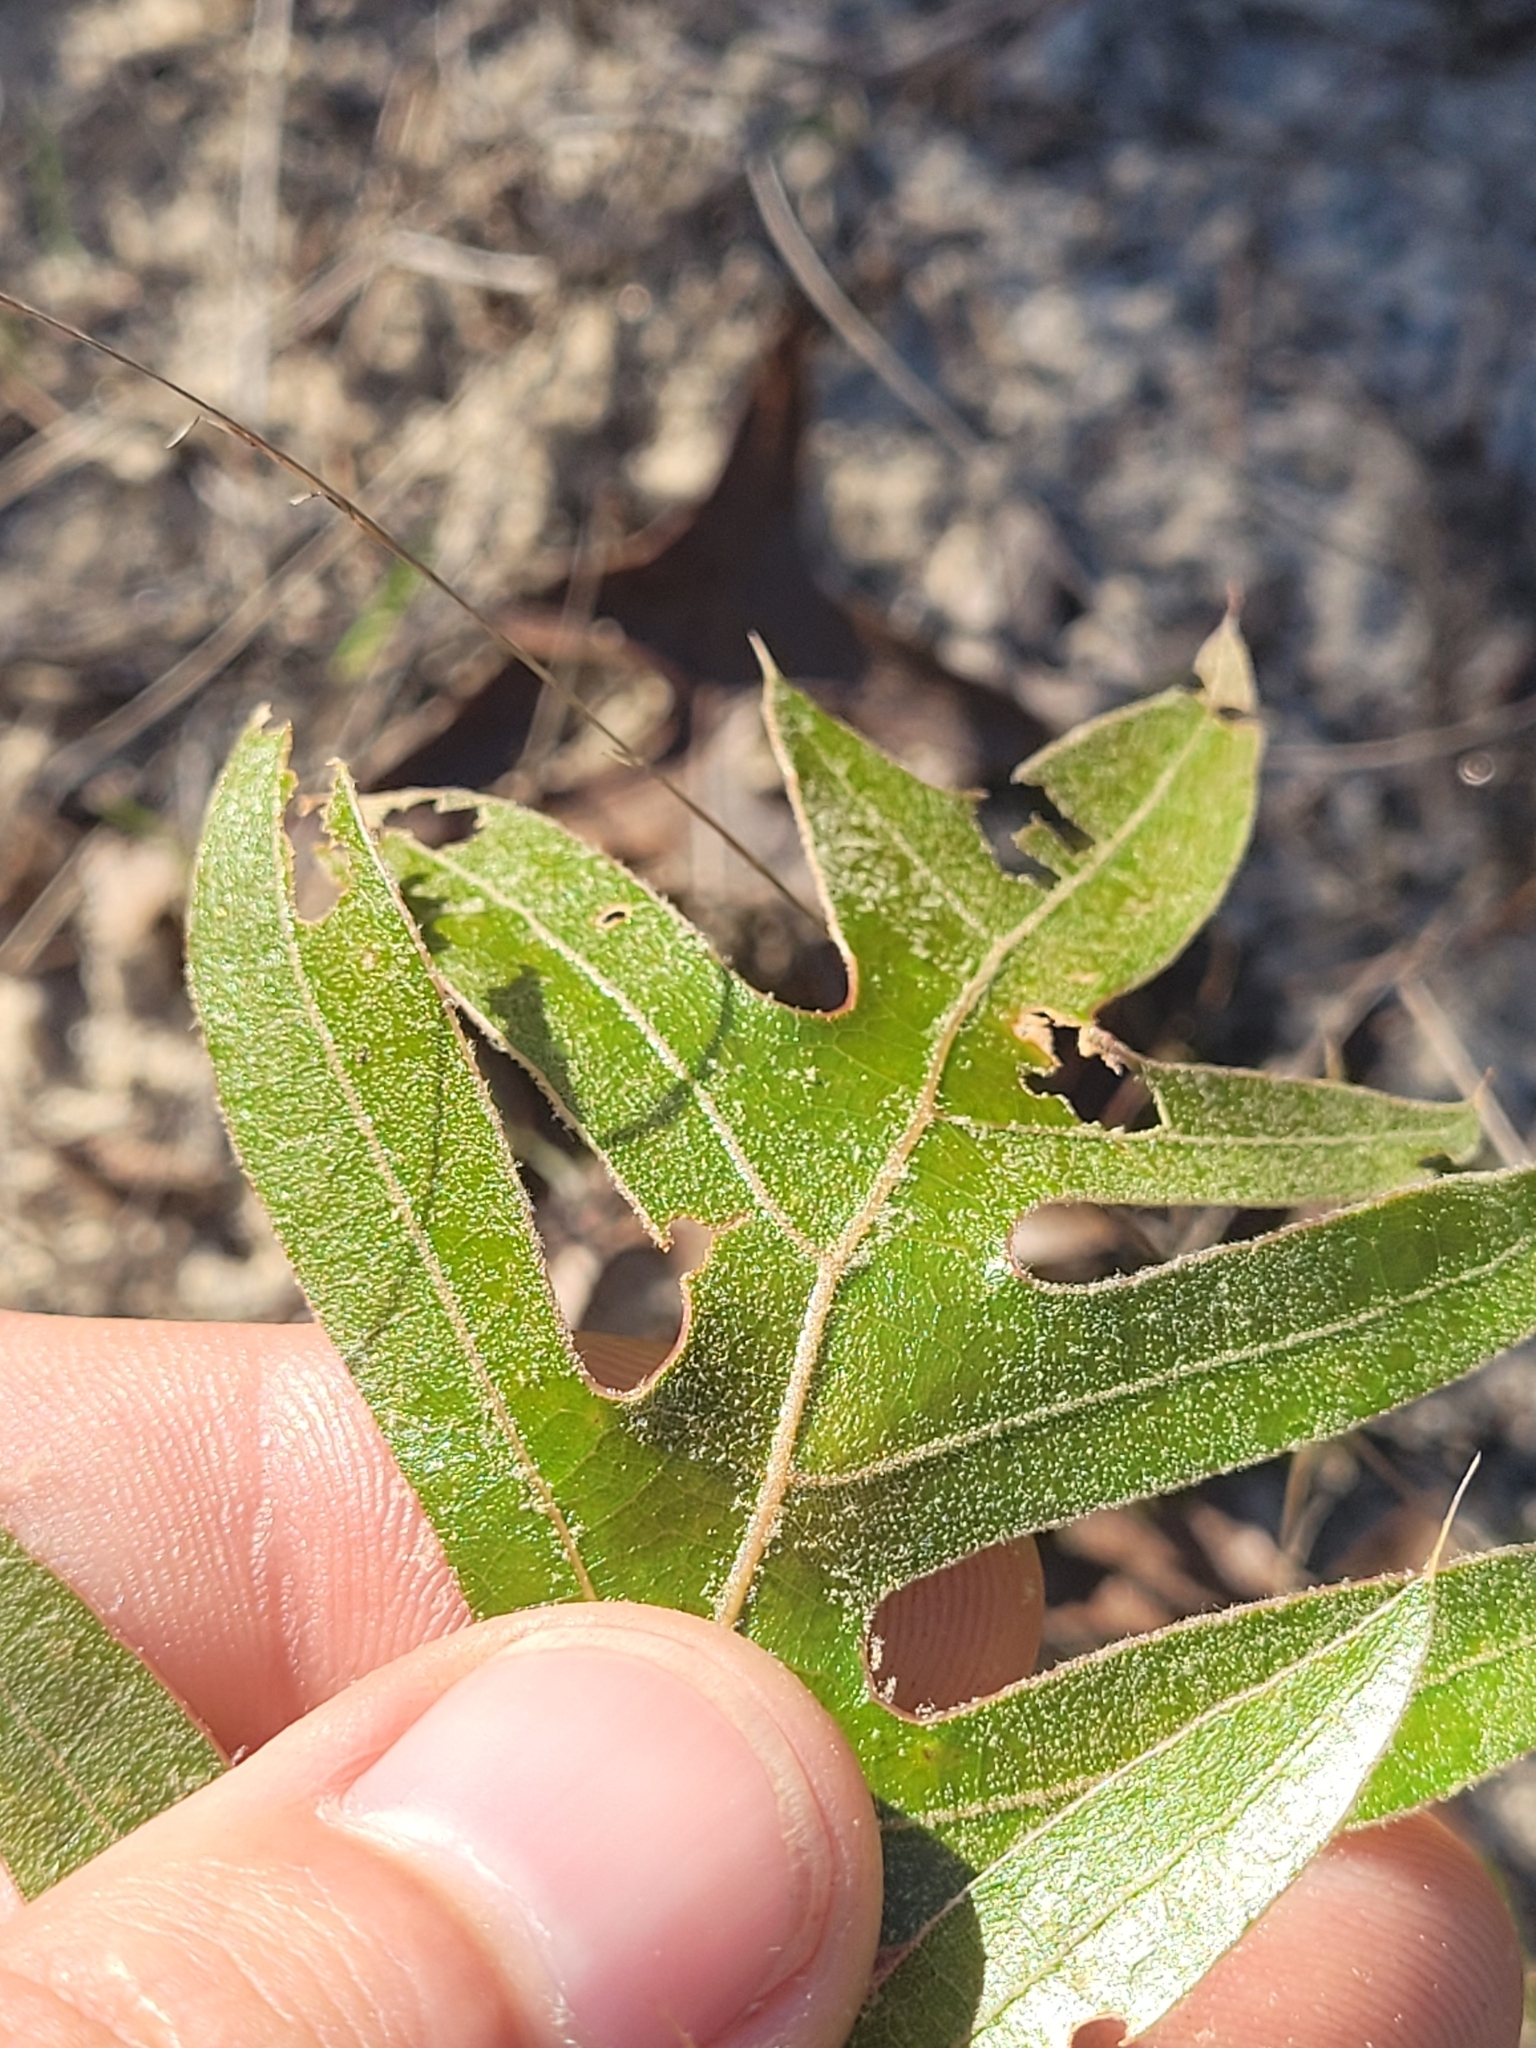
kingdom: Plantae
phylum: Tracheophyta
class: Magnoliopsida
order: Fagales
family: Fagaceae
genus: Quercus
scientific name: Quercus laevis
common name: Turkey oak
